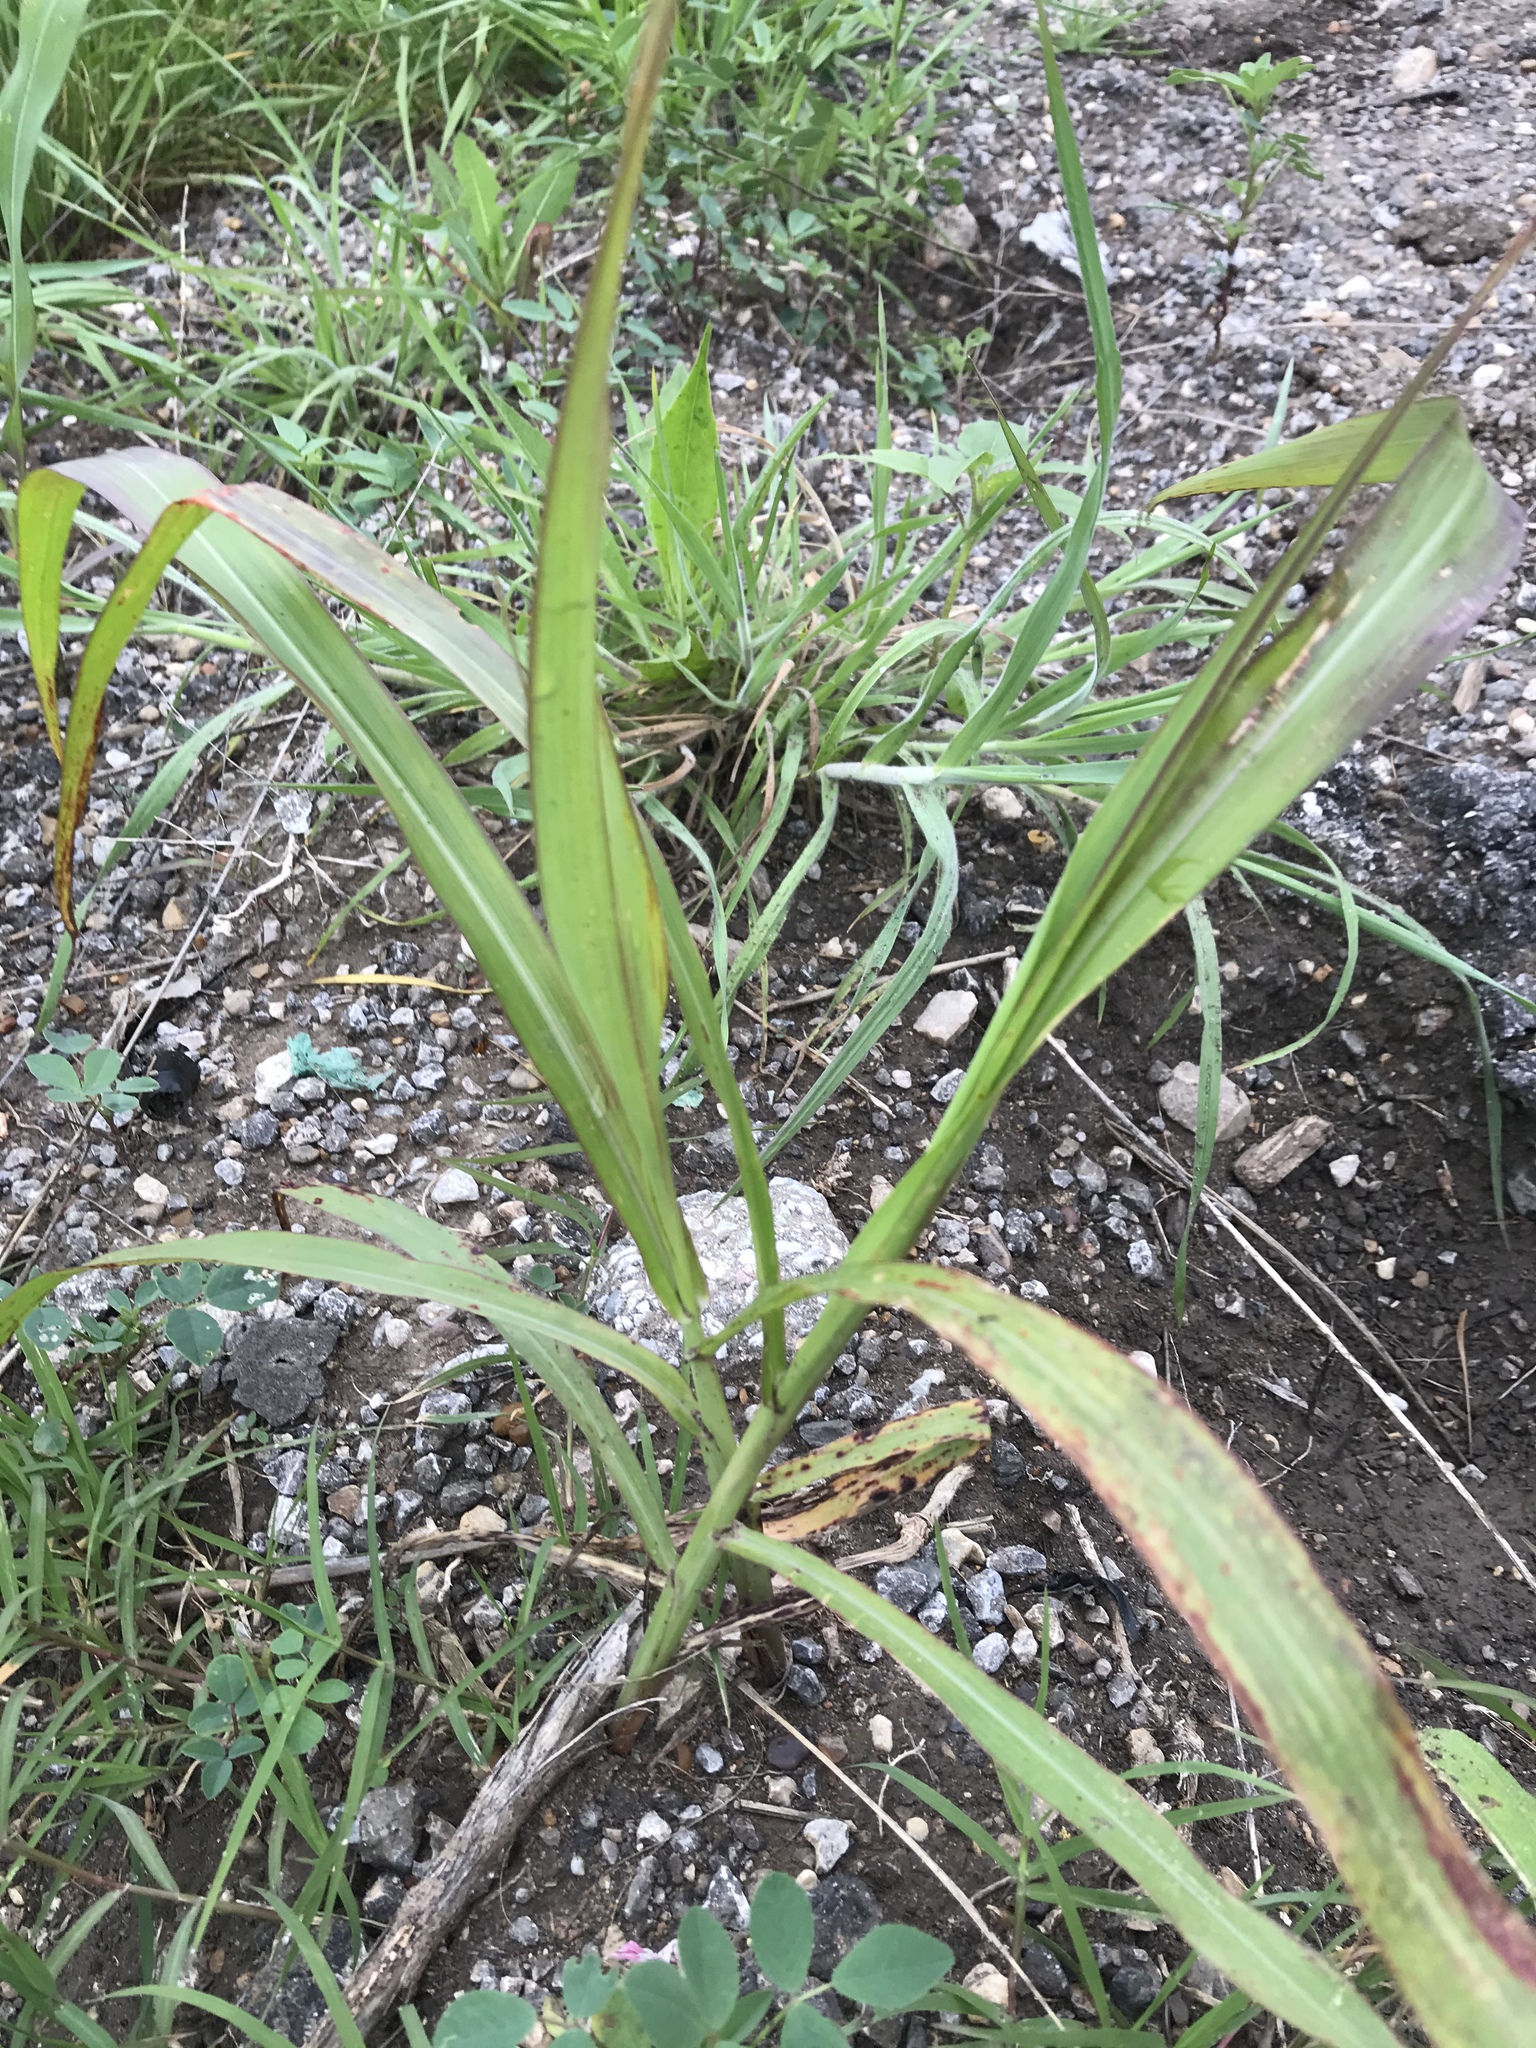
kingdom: Plantae
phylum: Tracheophyta
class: Liliopsida
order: Poales
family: Poaceae
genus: Sorghum
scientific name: Sorghum halepense
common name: Johnson-grass
